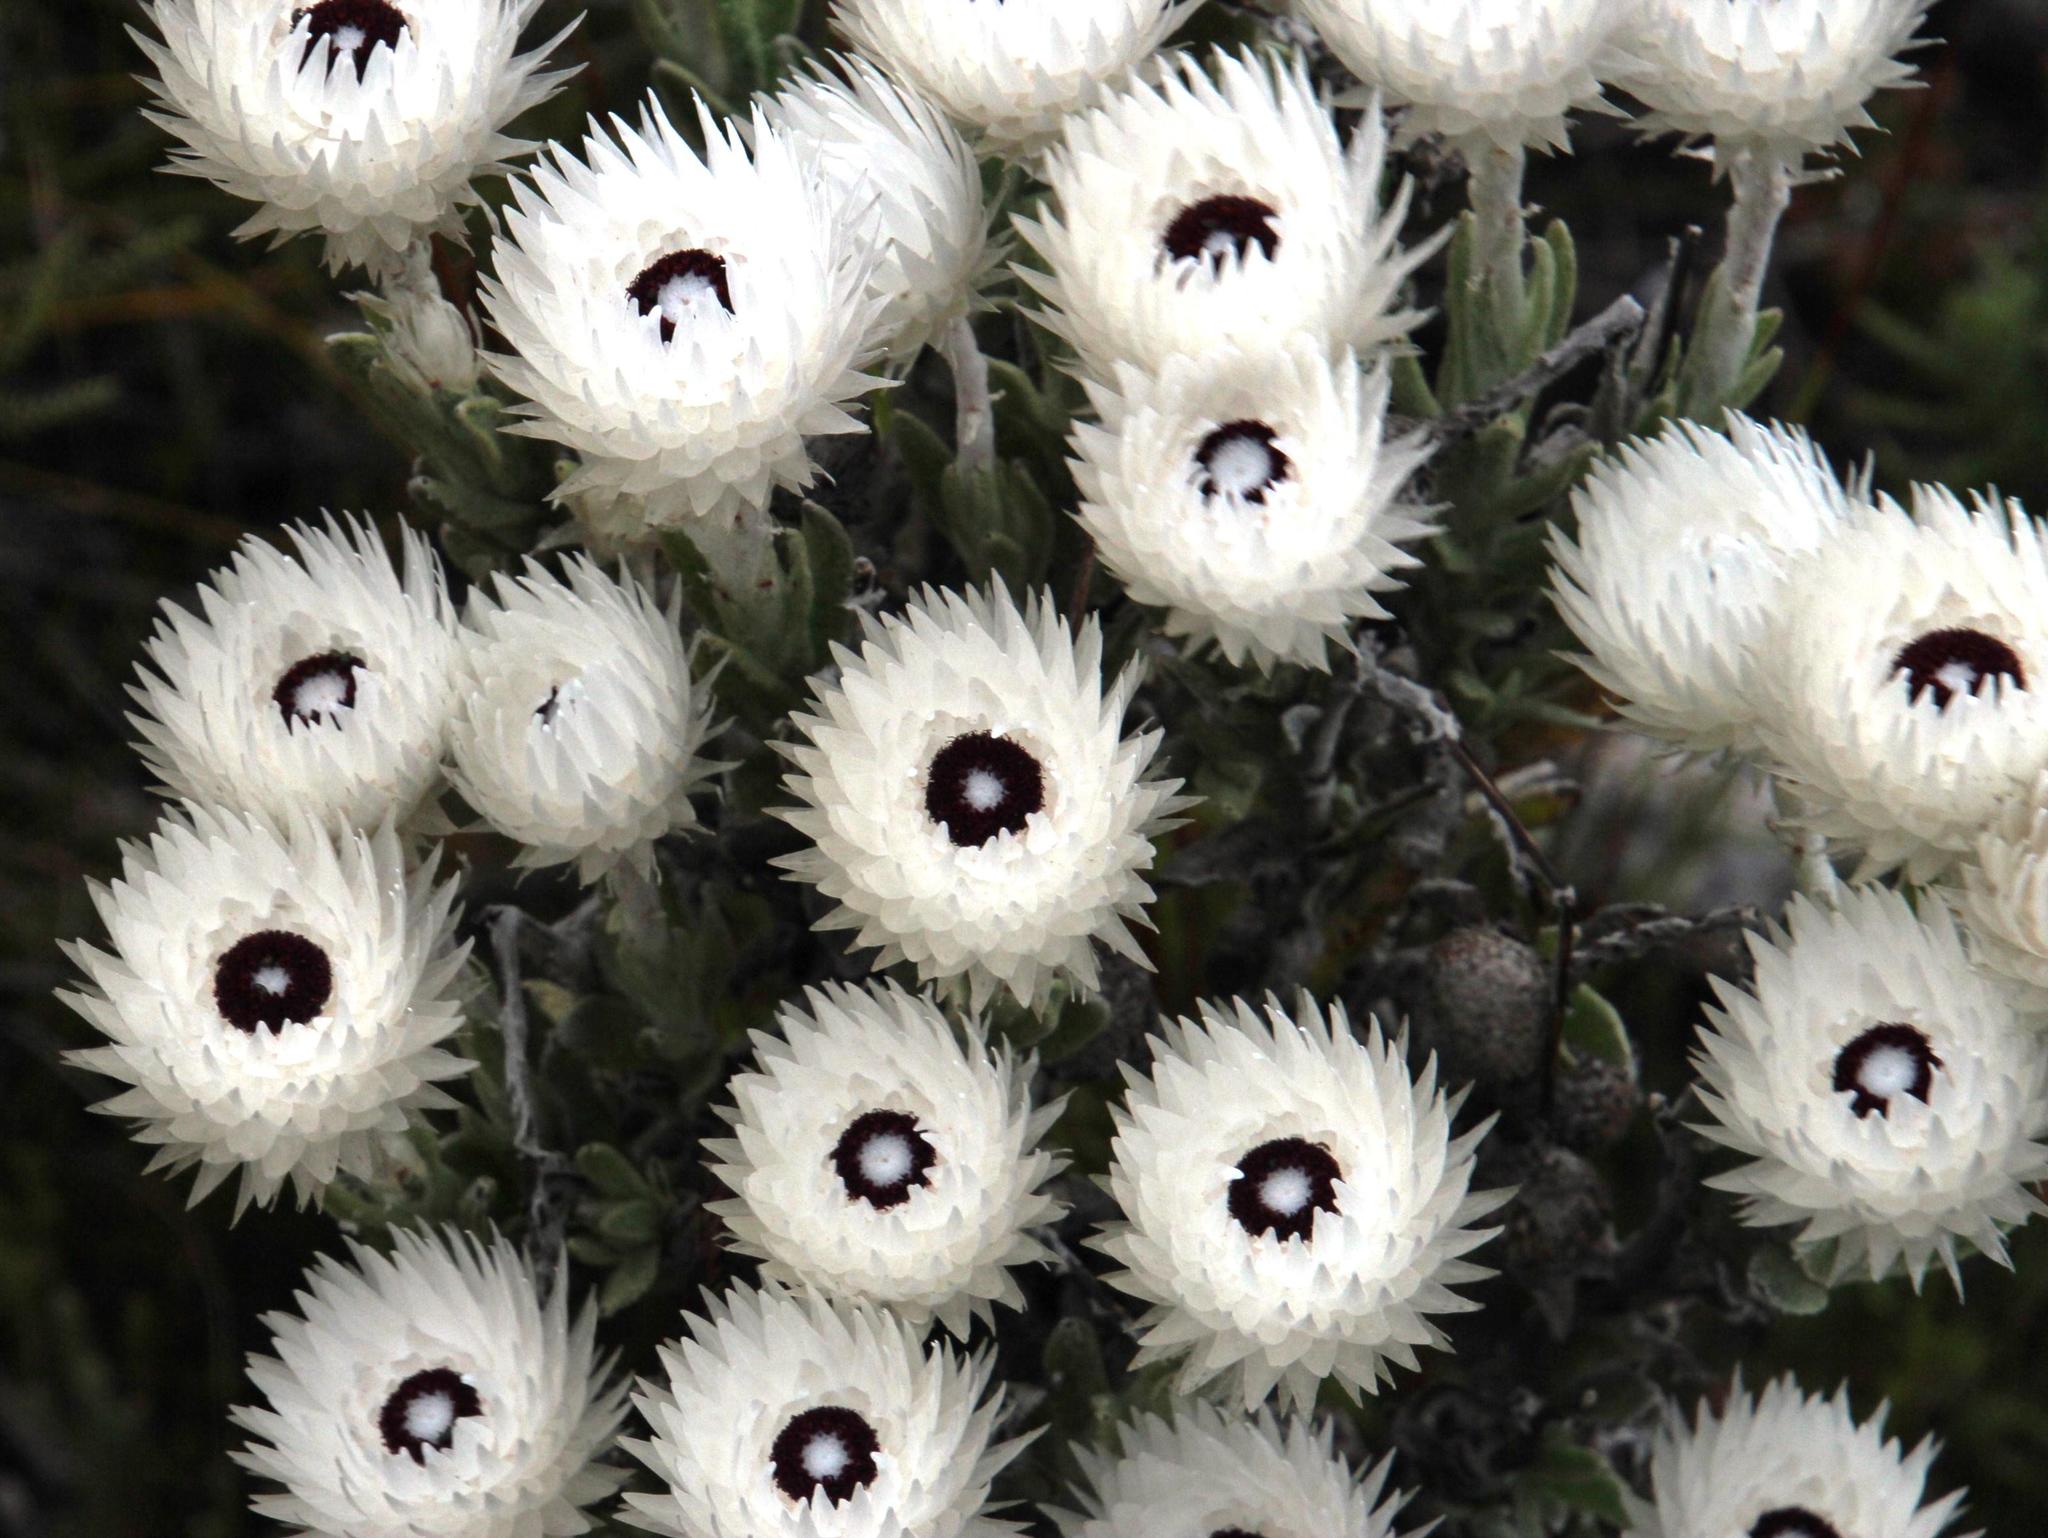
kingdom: Plantae
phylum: Tracheophyta
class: Magnoliopsida
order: Asterales
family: Asteraceae
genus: Syncarpha
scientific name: Syncarpha vestita
